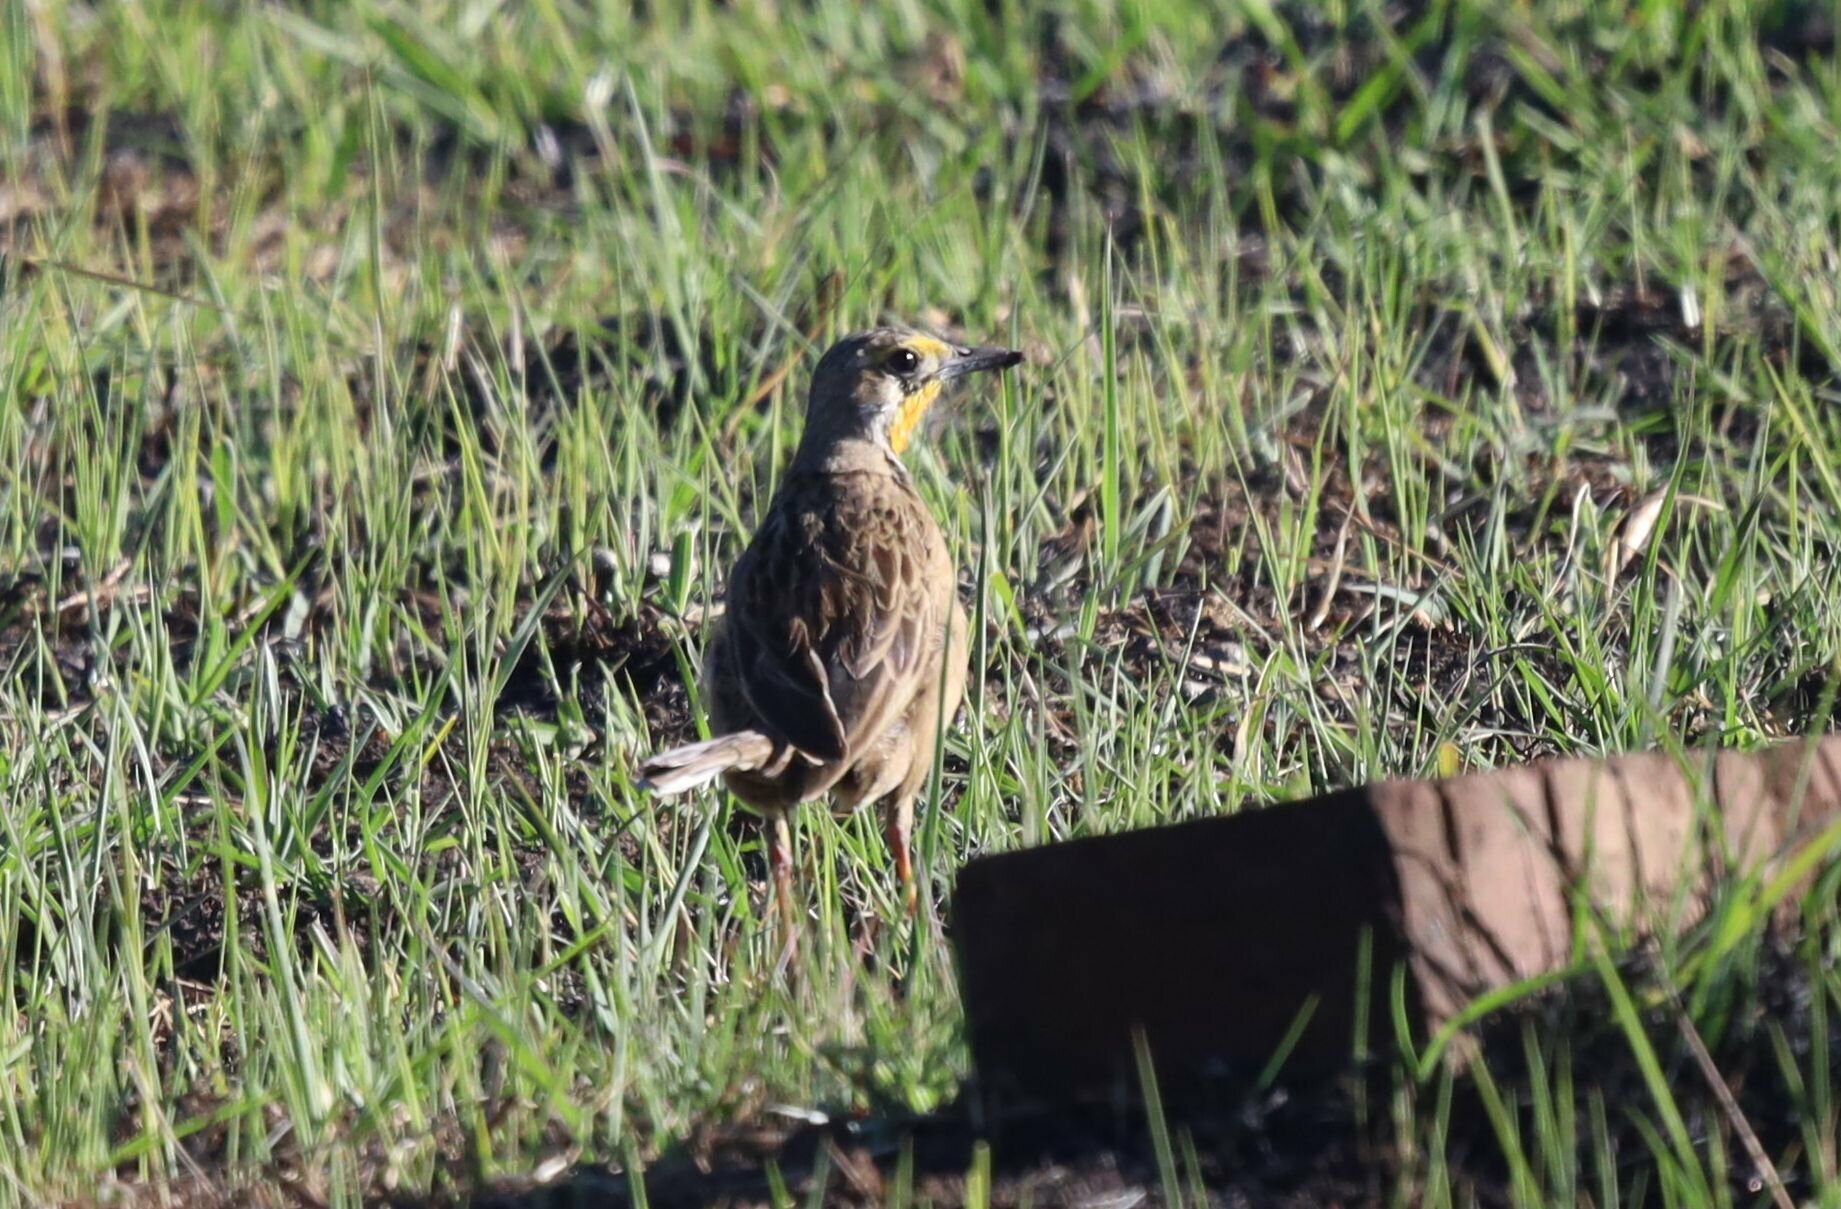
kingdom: Animalia
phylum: Chordata
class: Aves
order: Passeriformes
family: Motacillidae
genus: Macronyx
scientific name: Macronyx capensis
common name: Cape longclaw
